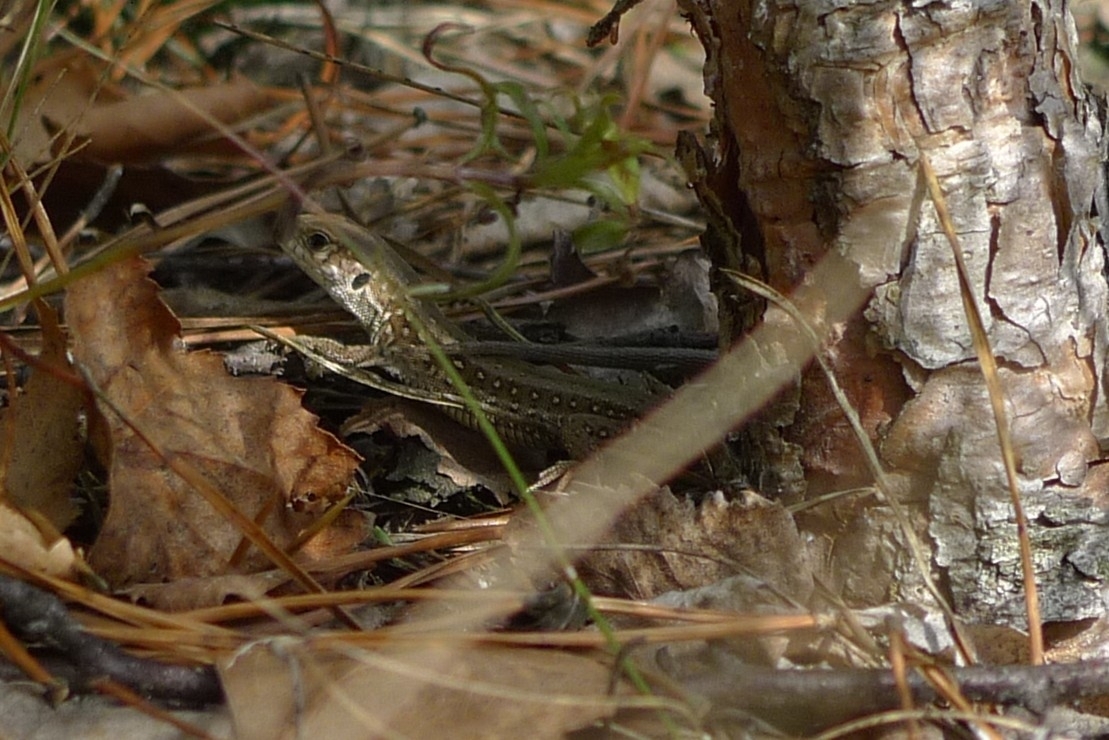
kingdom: Animalia
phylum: Chordata
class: Squamata
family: Lacertidae
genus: Lacerta
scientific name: Lacerta agilis
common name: Sand lizard
